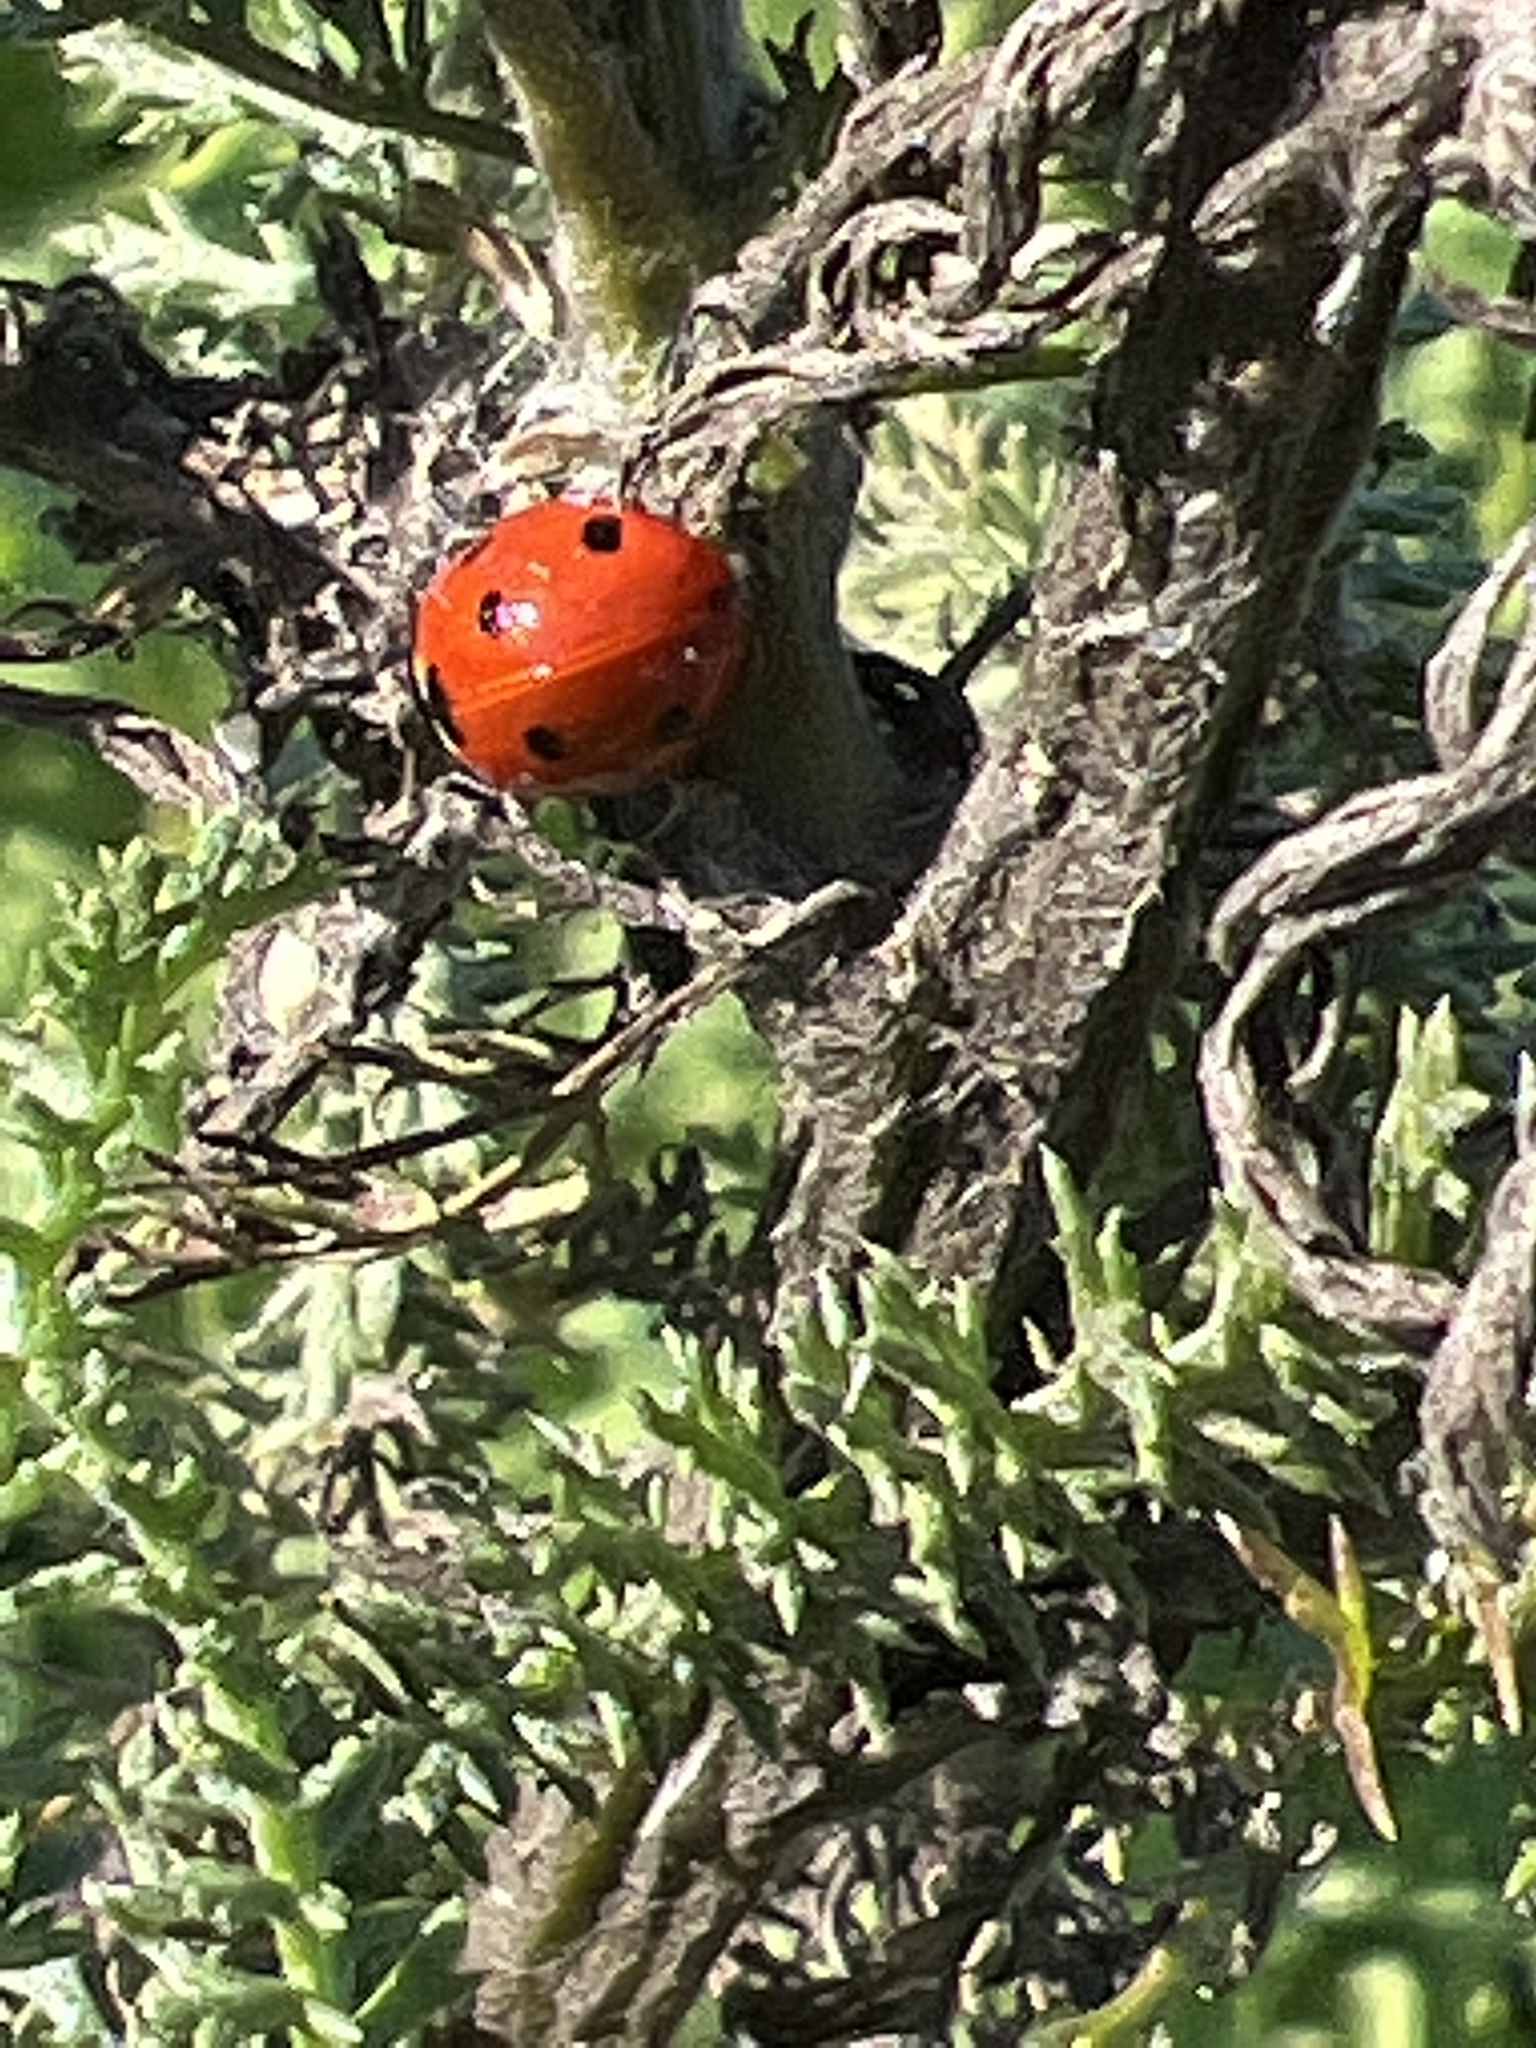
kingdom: Animalia
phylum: Arthropoda
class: Insecta
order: Coleoptera
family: Coccinellidae
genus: Coccinella
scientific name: Coccinella septempunctata
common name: Sevenspotted lady beetle
